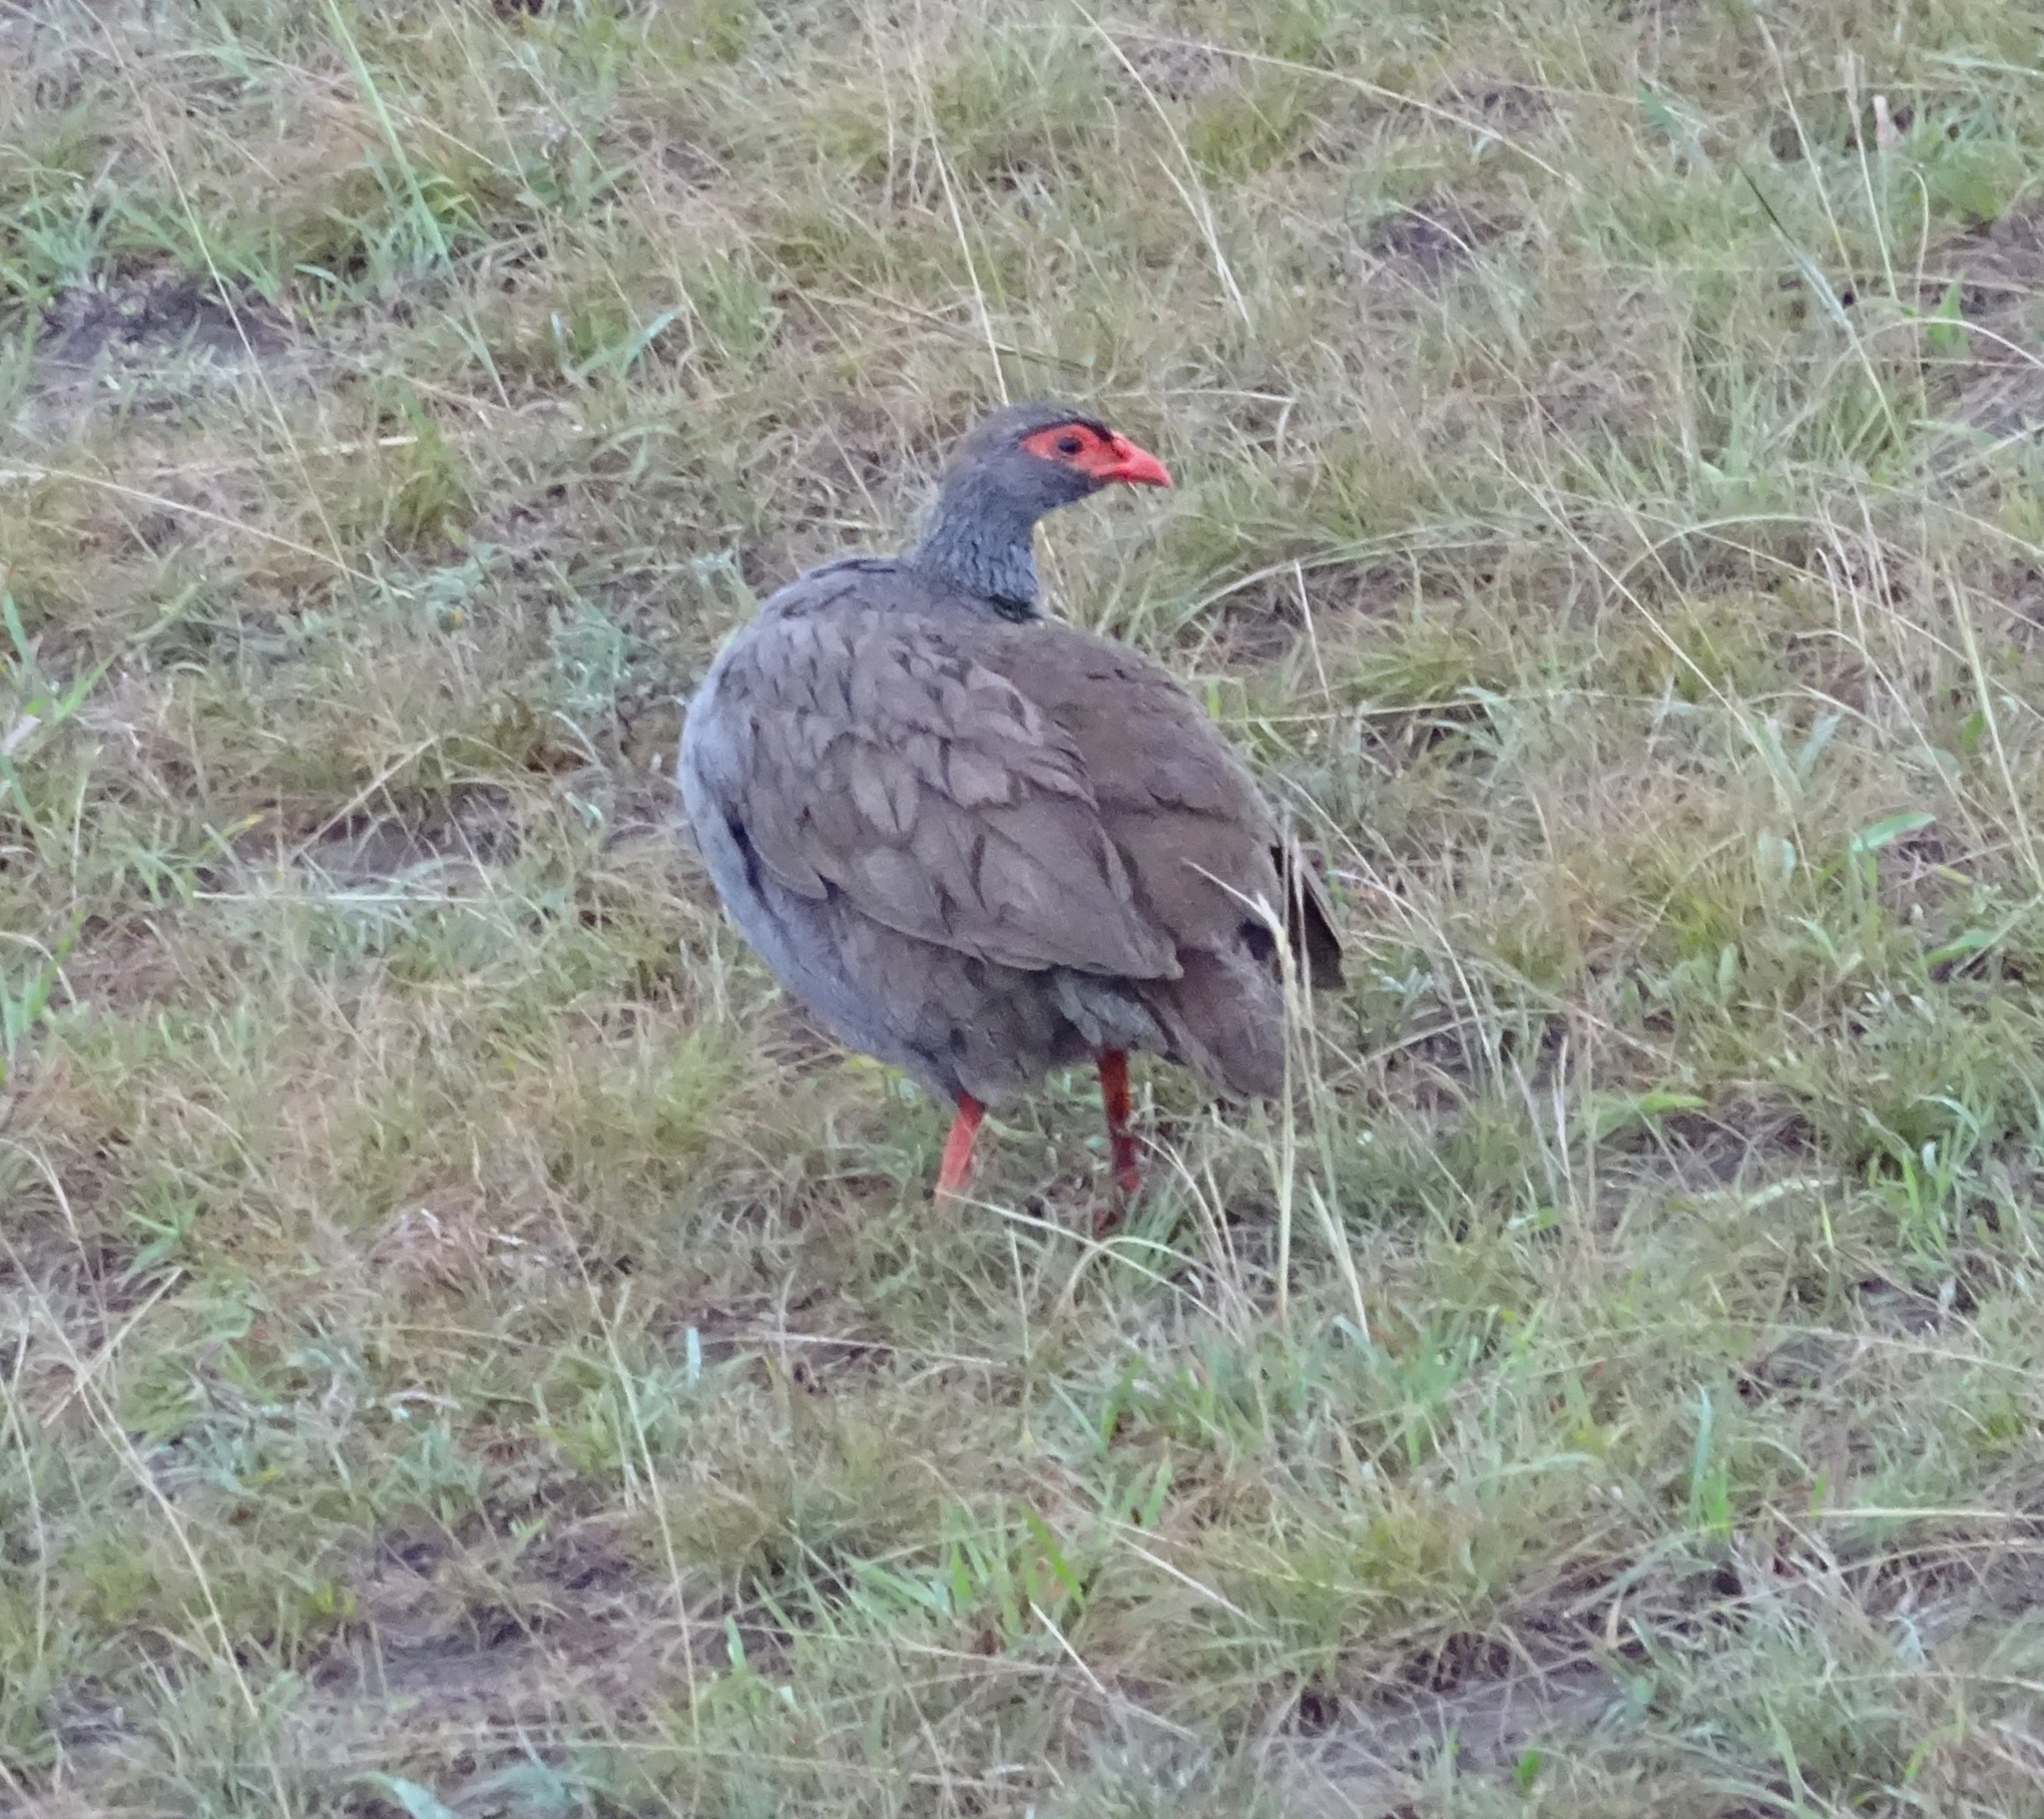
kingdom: Animalia
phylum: Chordata
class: Aves
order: Galliformes
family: Phasianidae
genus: Pternistis
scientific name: Pternistis afer
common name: Red-necked spurfowl
